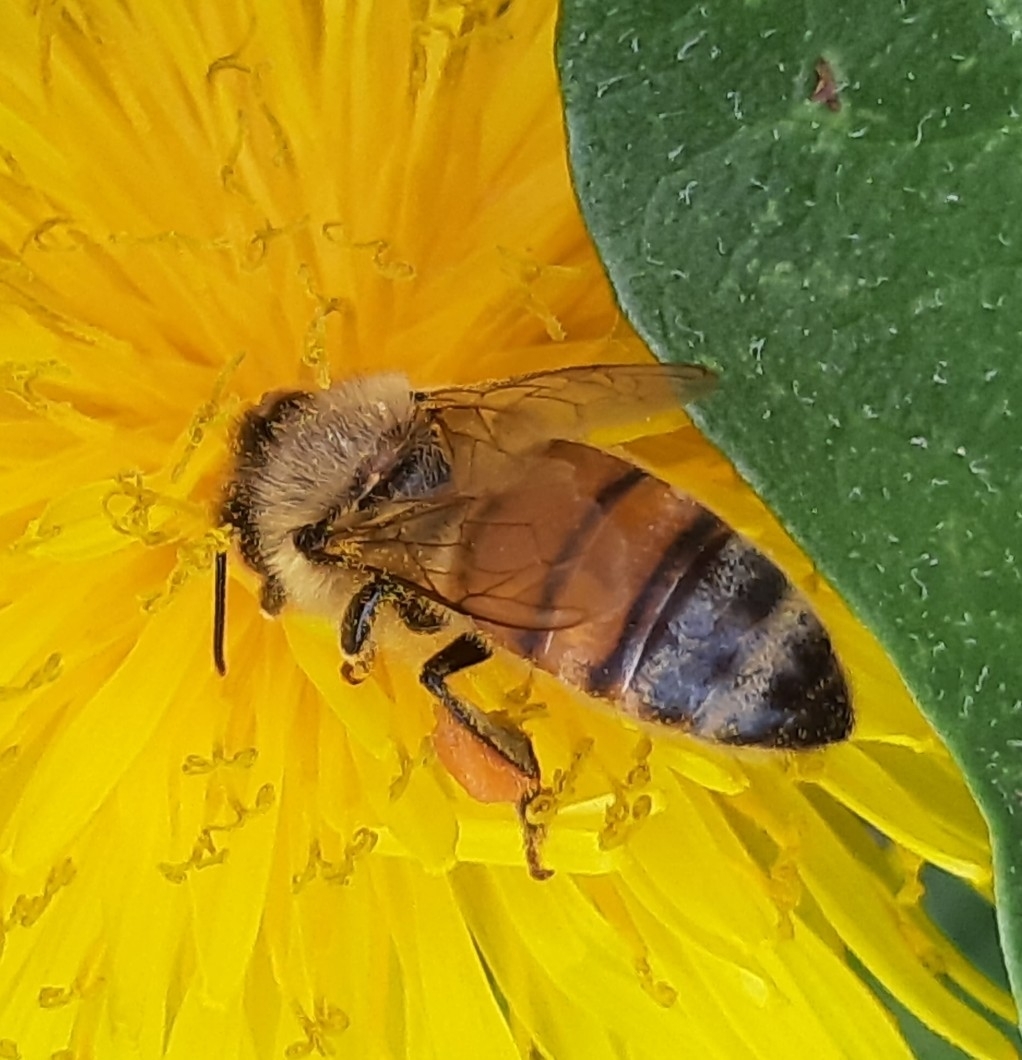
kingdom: Animalia
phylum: Arthropoda
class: Insecta
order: Hymenoptera
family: Apidae
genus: Apis
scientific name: Apis mellifera
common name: Honey bee
